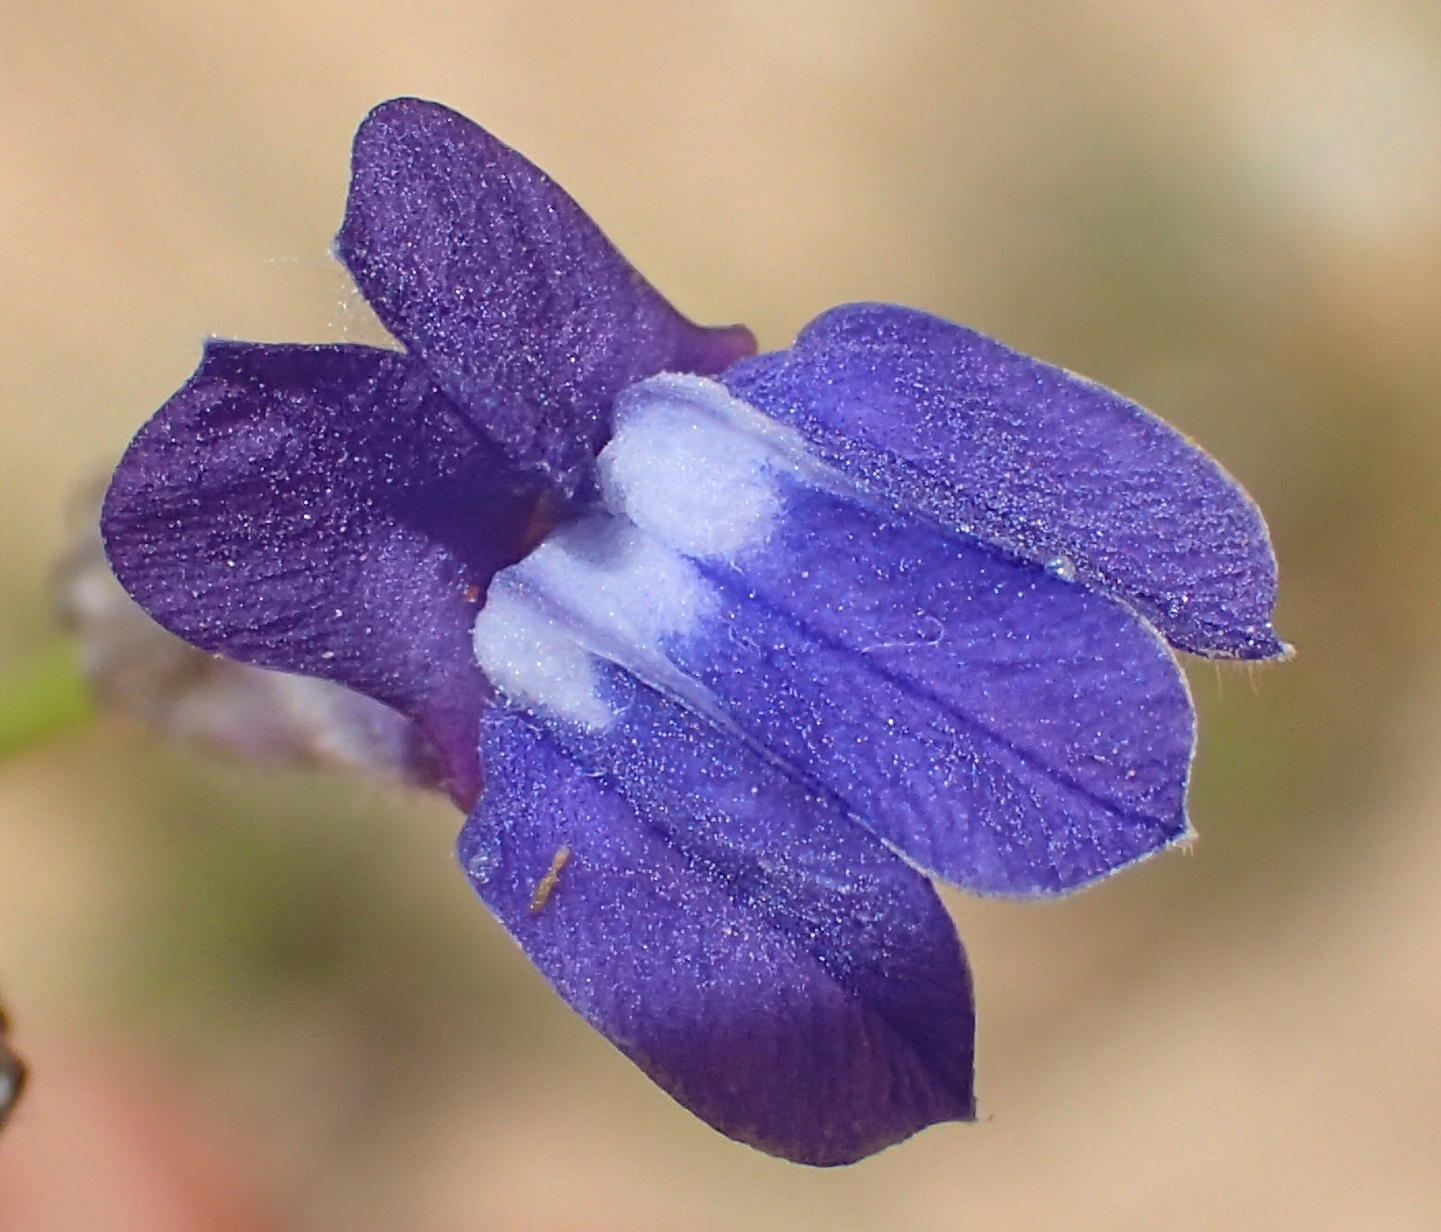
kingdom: Plantae
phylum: Tracheophyta
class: Magnoliopsida
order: Asterales
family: Campanulaceae
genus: Lobelia
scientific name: Lobelia linearis
